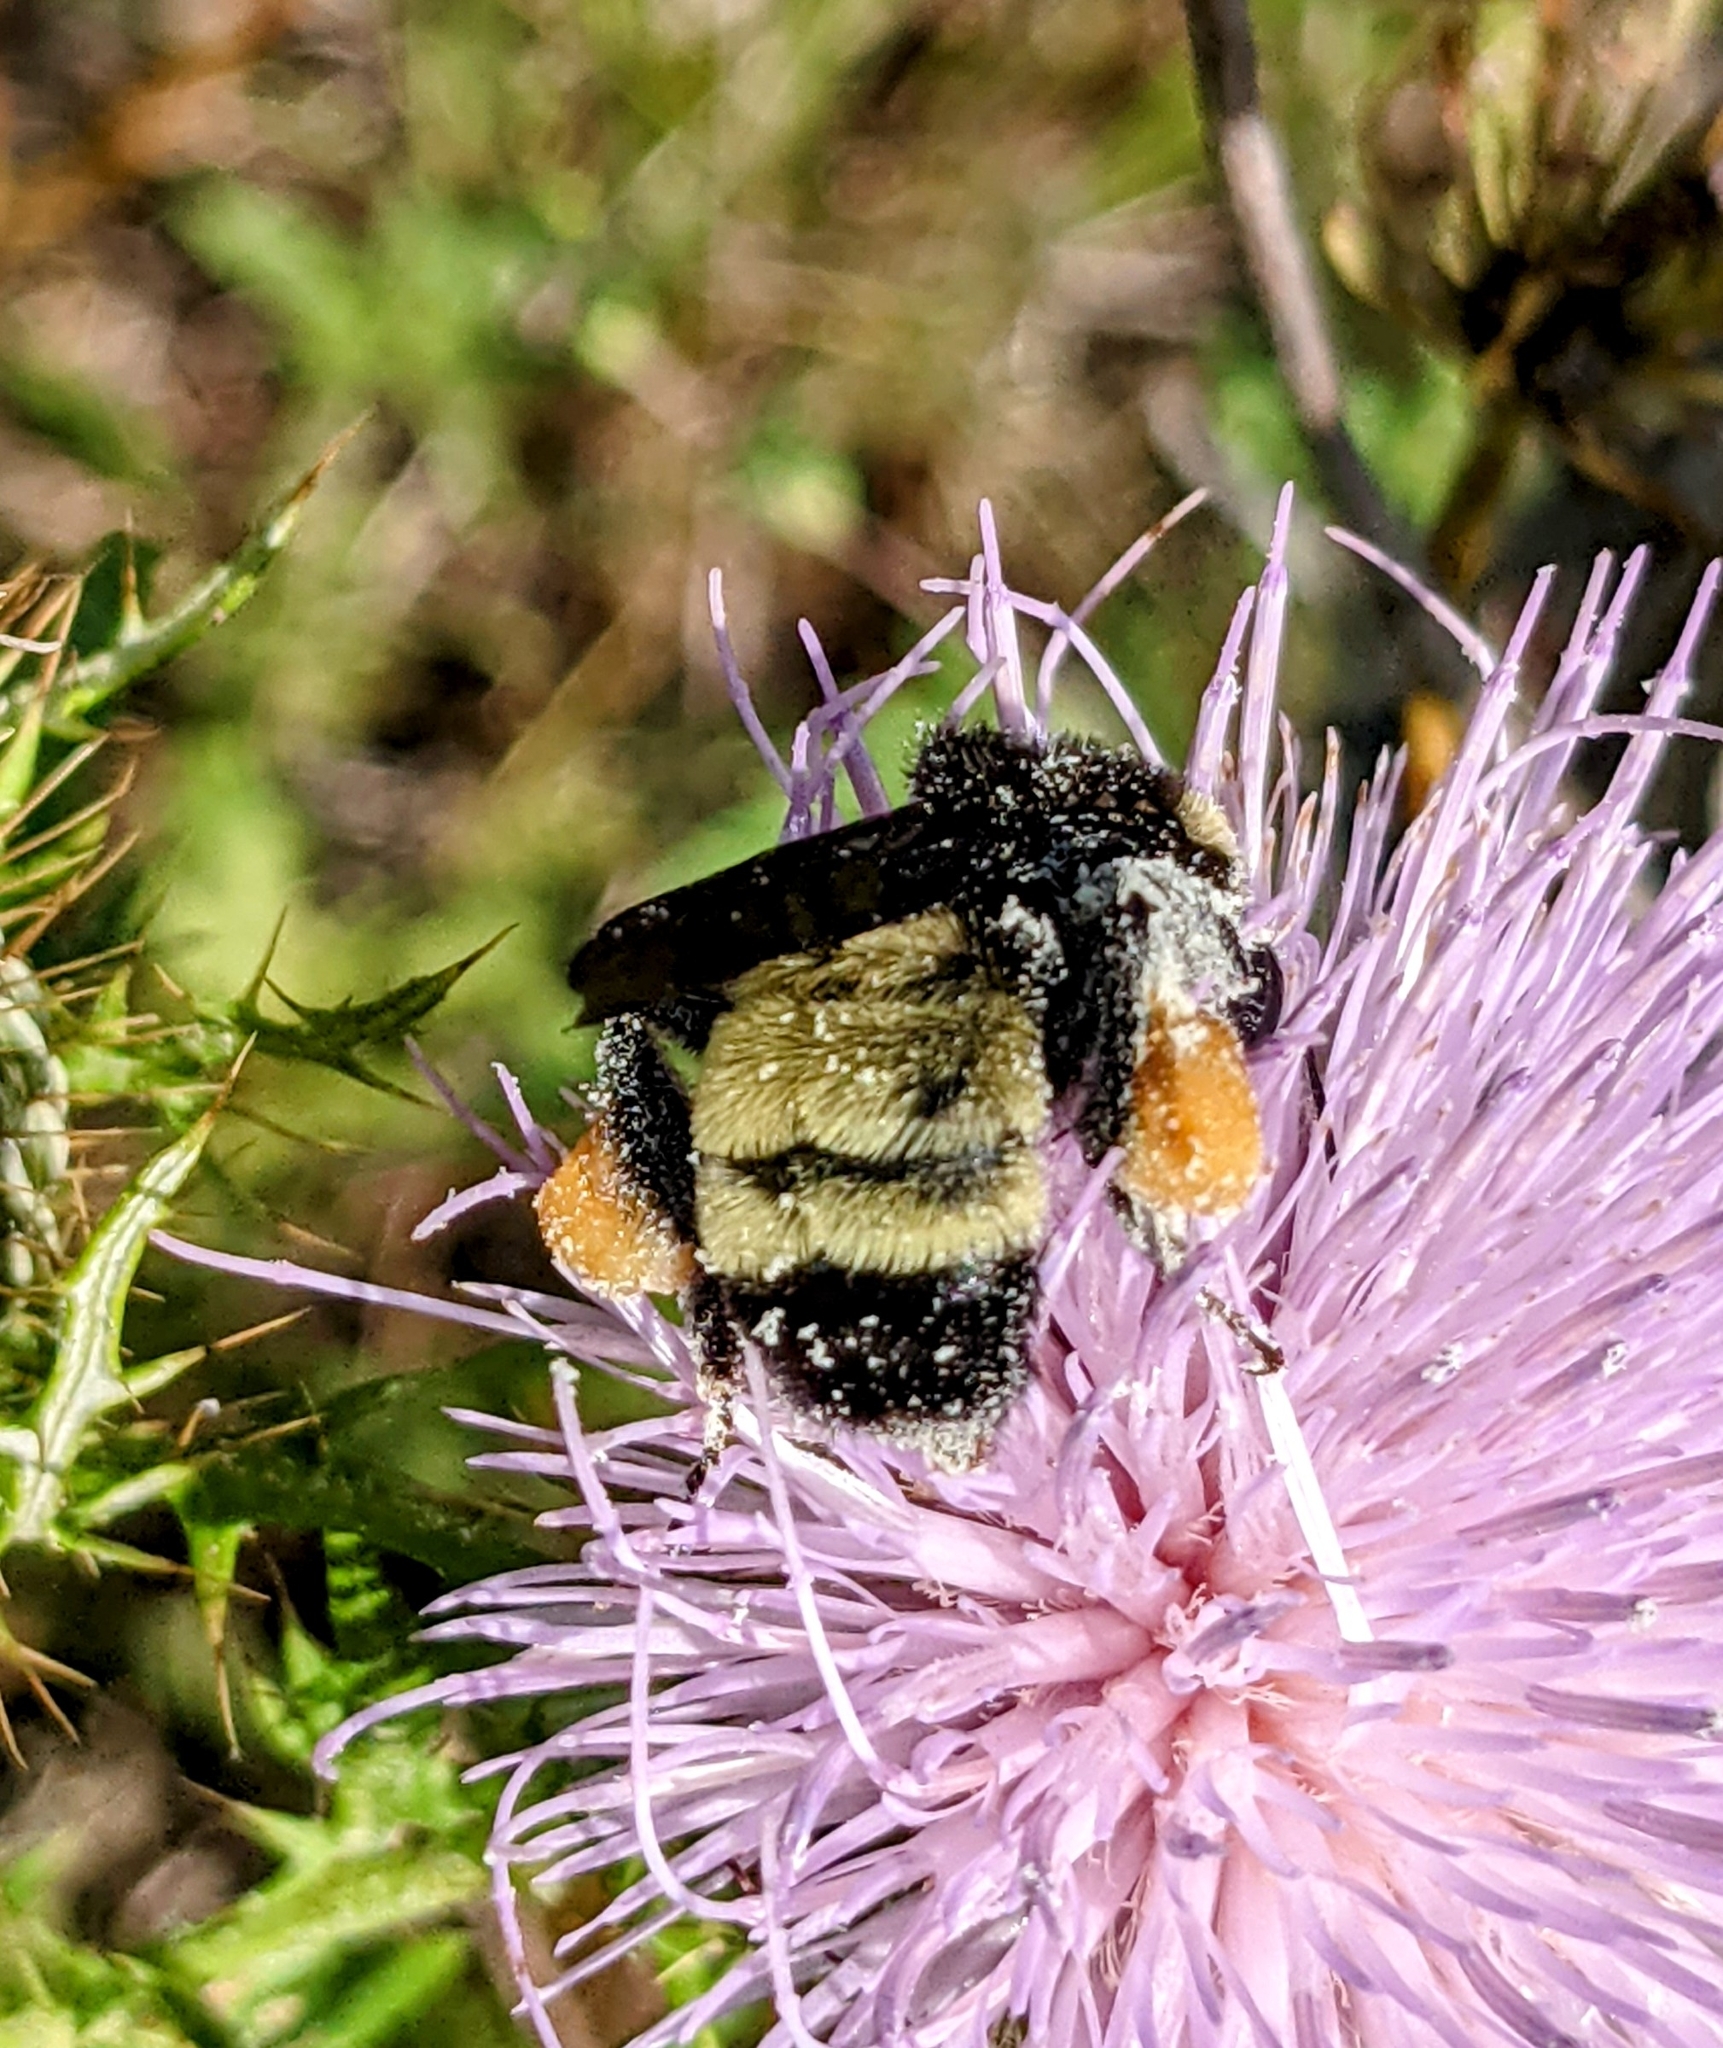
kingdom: Animalia
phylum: Arthropoda
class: Insecta
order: Hymenoptera
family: Apidae
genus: Bombus
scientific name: Bombus pensylvanicus
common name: Bumble bee
